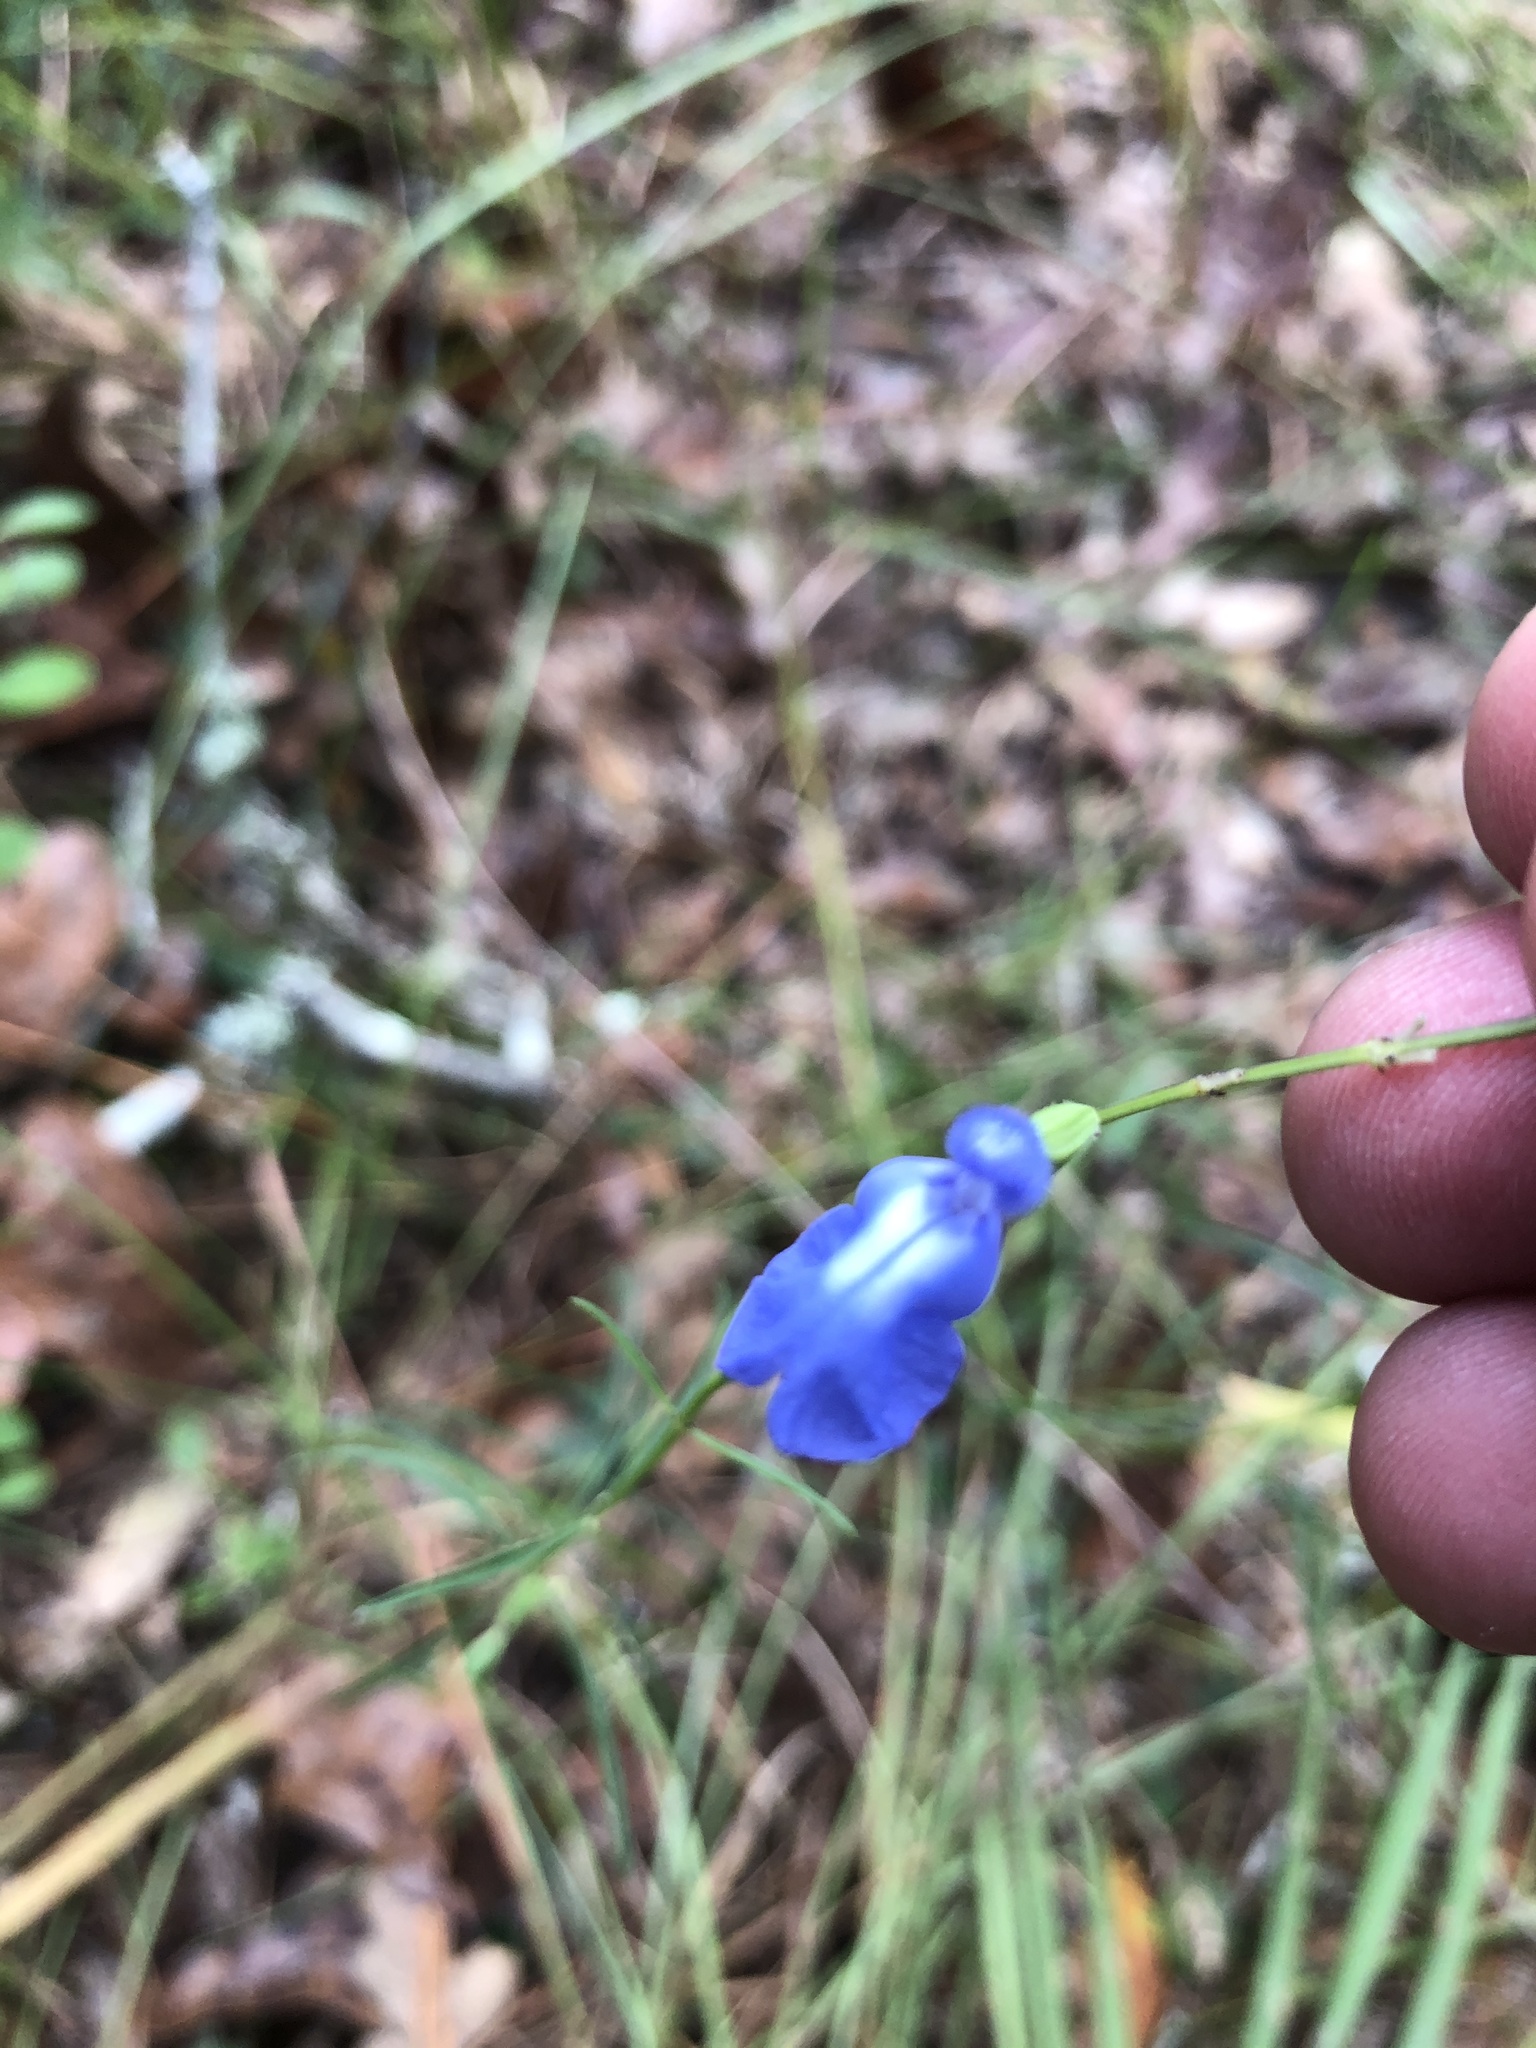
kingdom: Plantae
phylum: Tracheophyta
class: Magnoliopsida
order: Lamiales
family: Lamiaceae
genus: Salvia
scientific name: Salvia azurea
